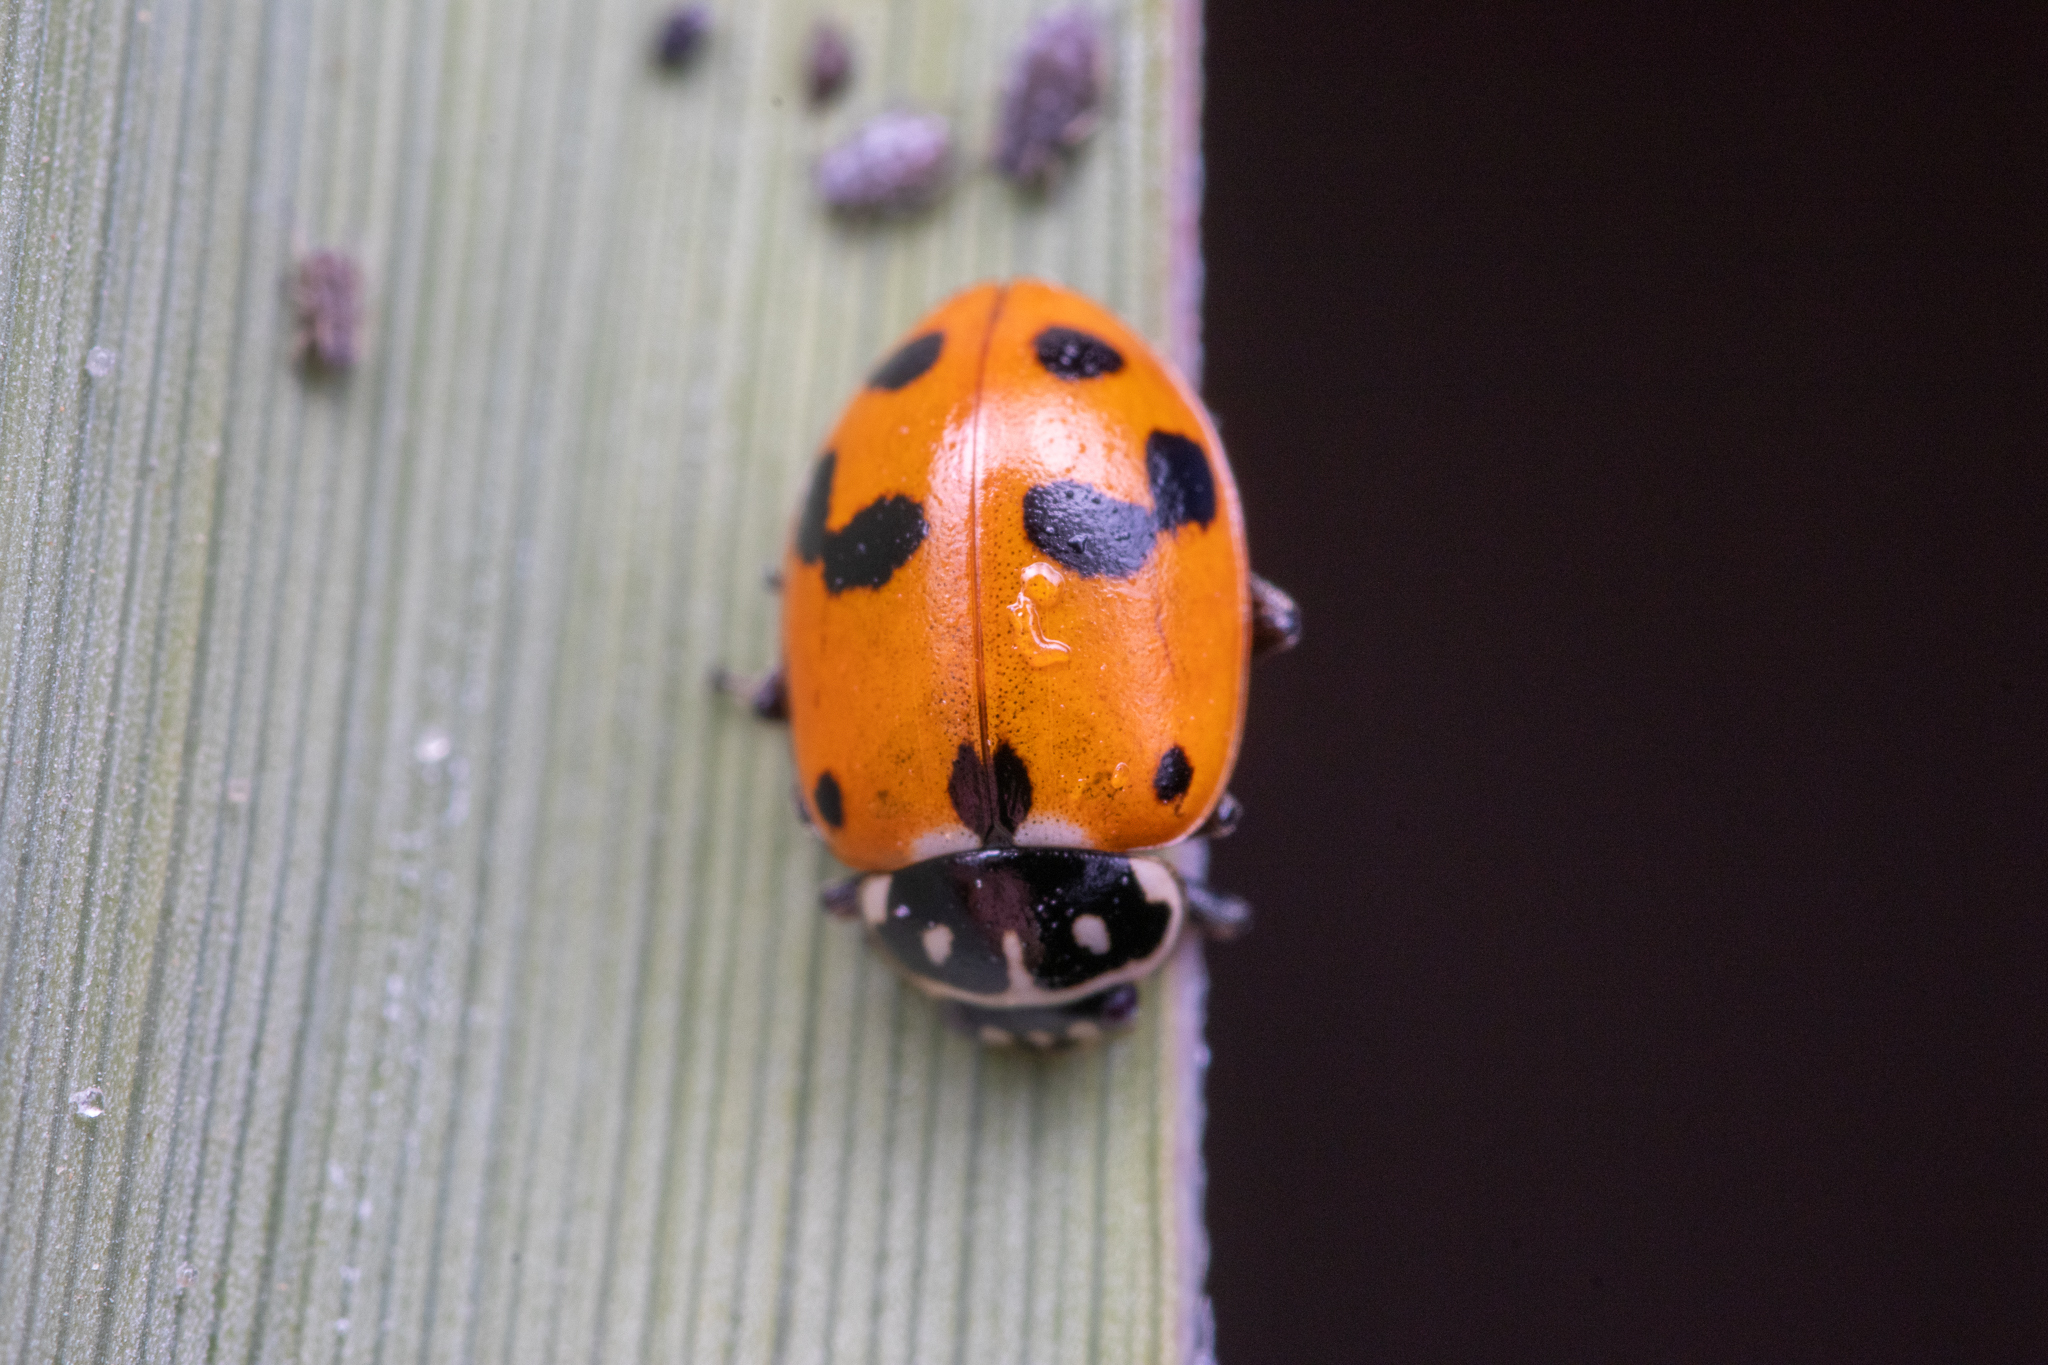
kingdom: Animalia
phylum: Arthropoda
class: Insecta
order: Coleoptera
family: Coccinellidae
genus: Hippodamia
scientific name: Hippodamia variegata
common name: Ladybird beetle
